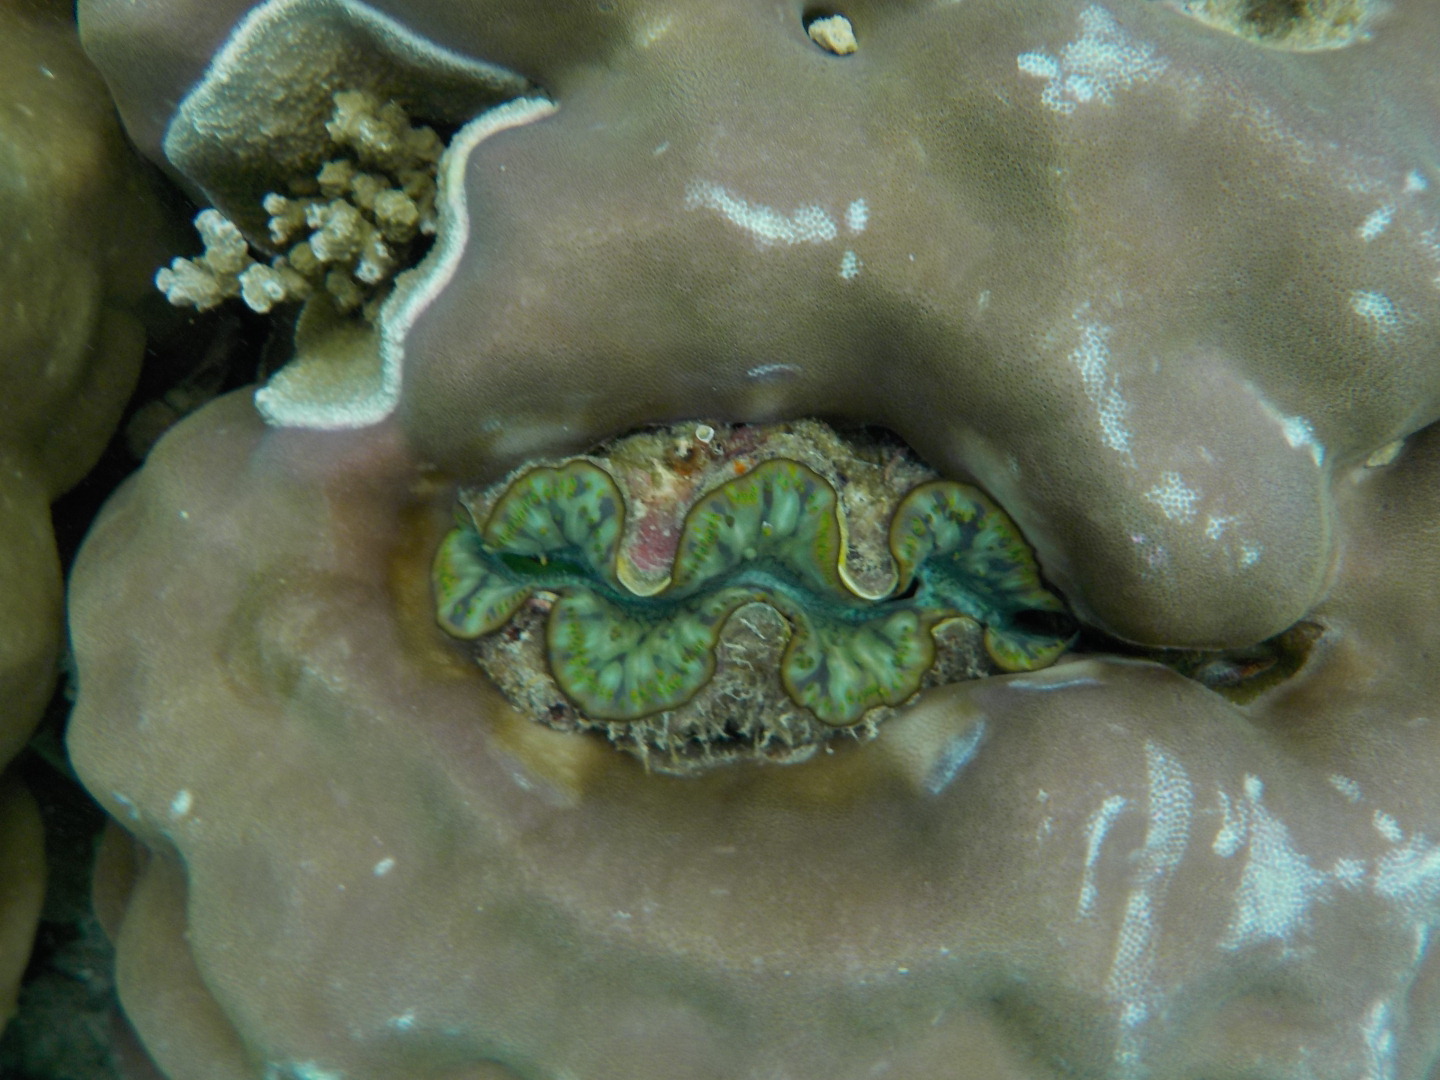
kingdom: Animalia
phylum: Mollusca
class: Bivalvia
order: Cardiida
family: Cardiidae
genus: Tridacna
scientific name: Tridacna maxima
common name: Small giant clam
